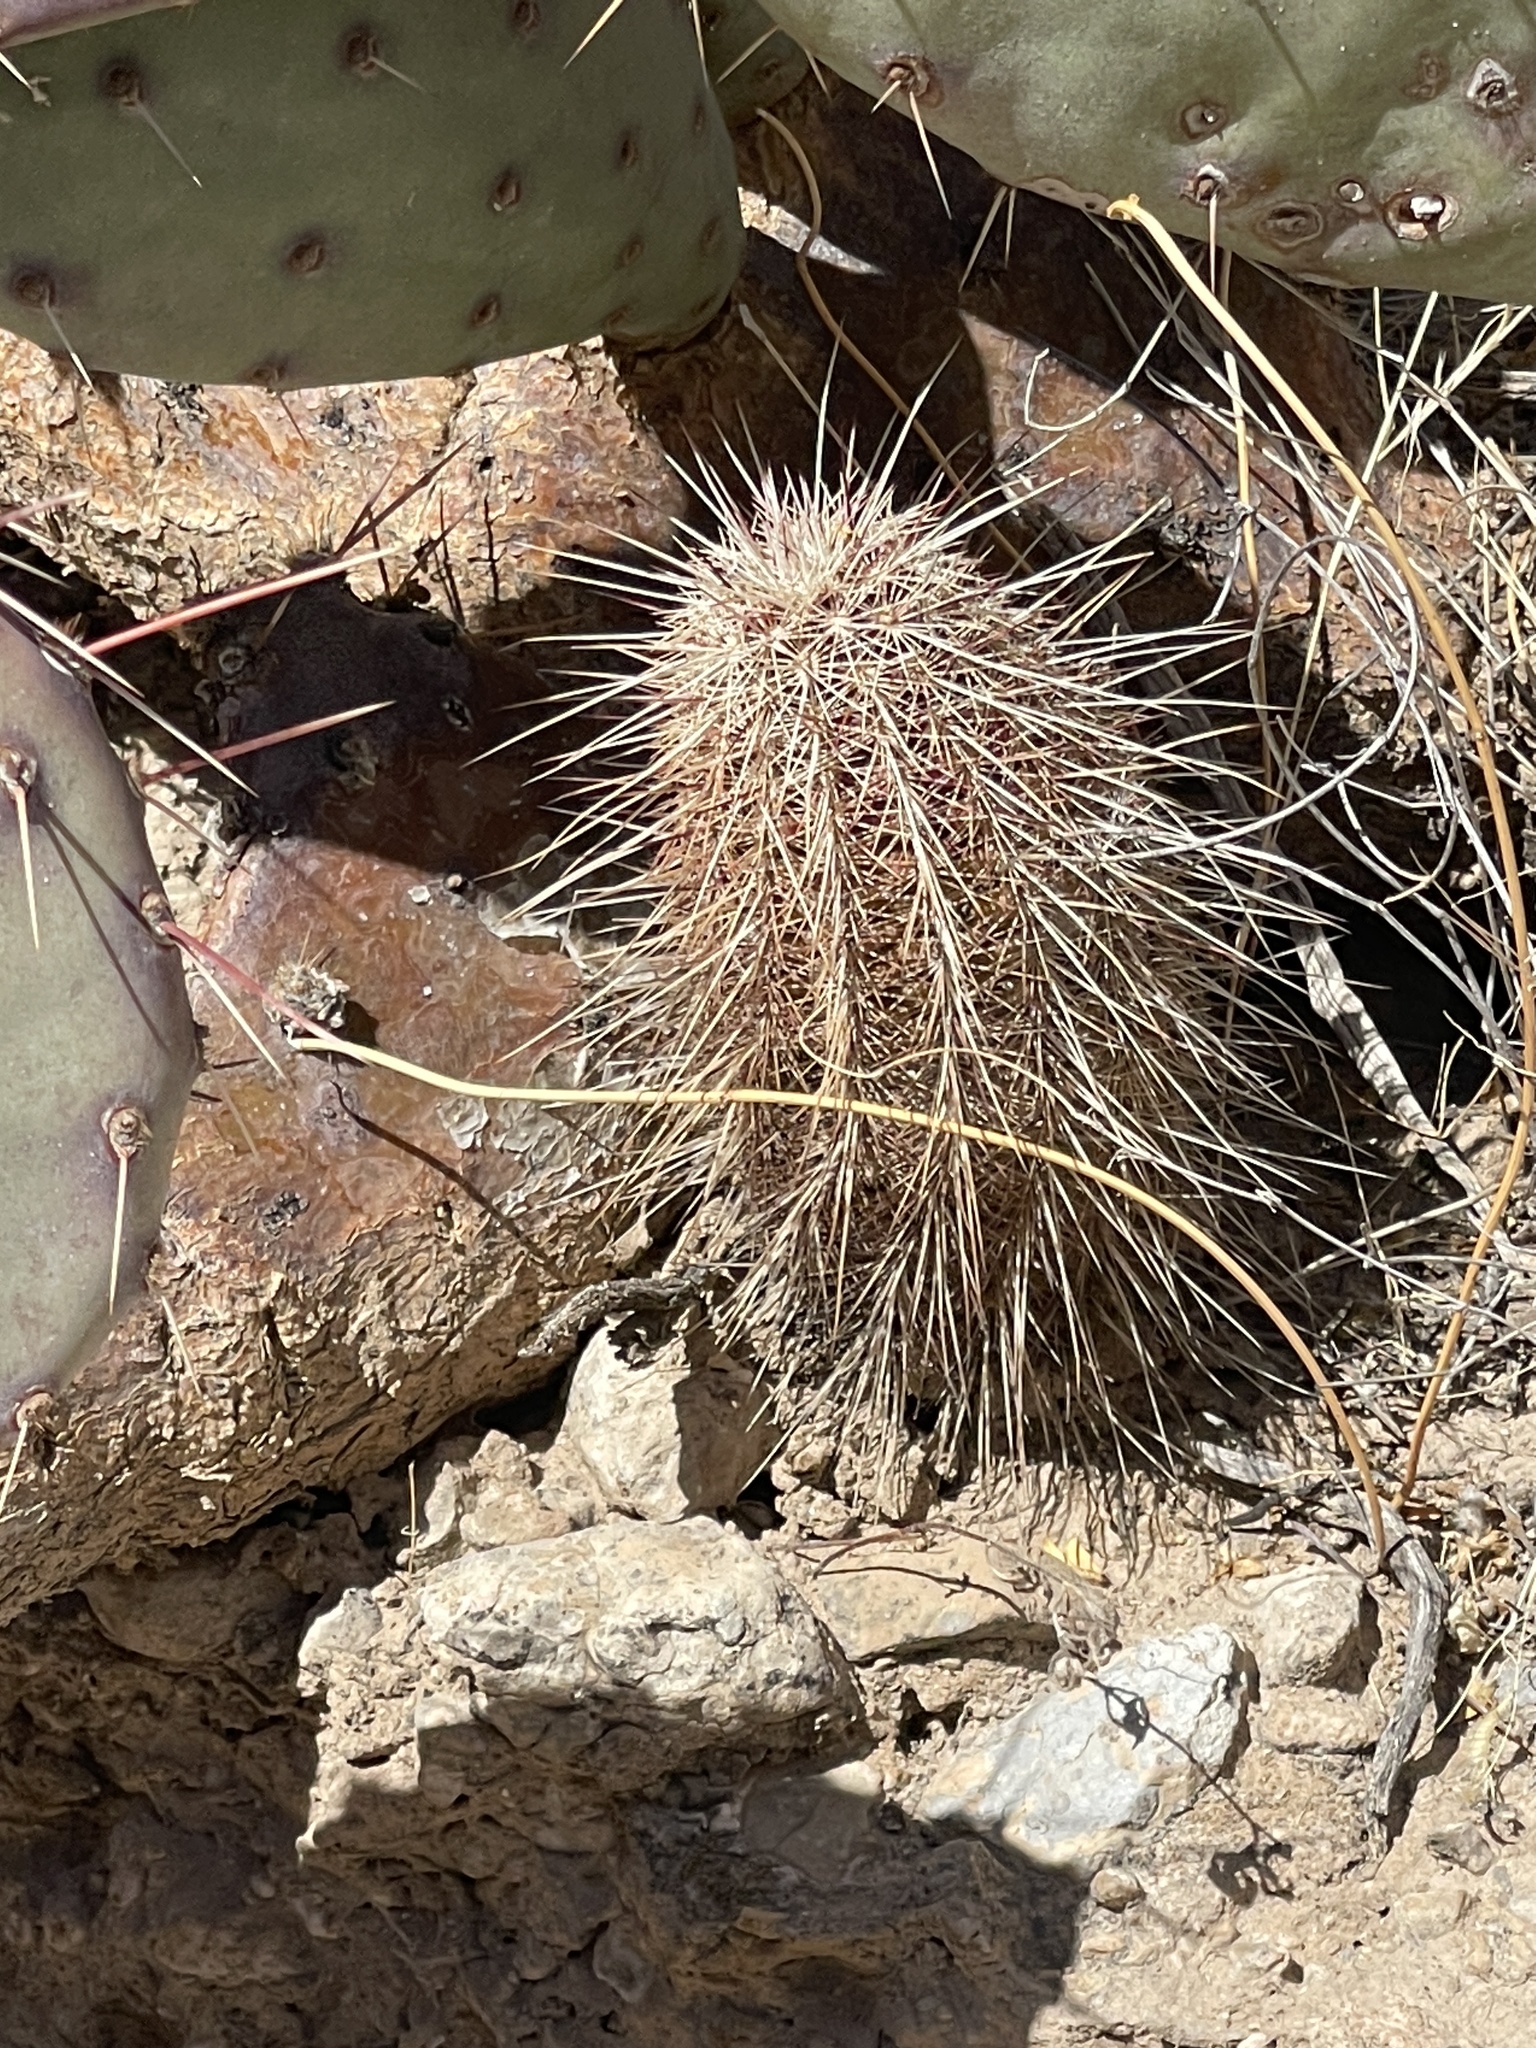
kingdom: Plantae
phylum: Tracheophyta
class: Magnoliopsida
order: Caryophyllales
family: Cactaceae
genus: Echinocereus
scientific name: Echinocereus viridiflorus
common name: Nylon hedgehog cactus
